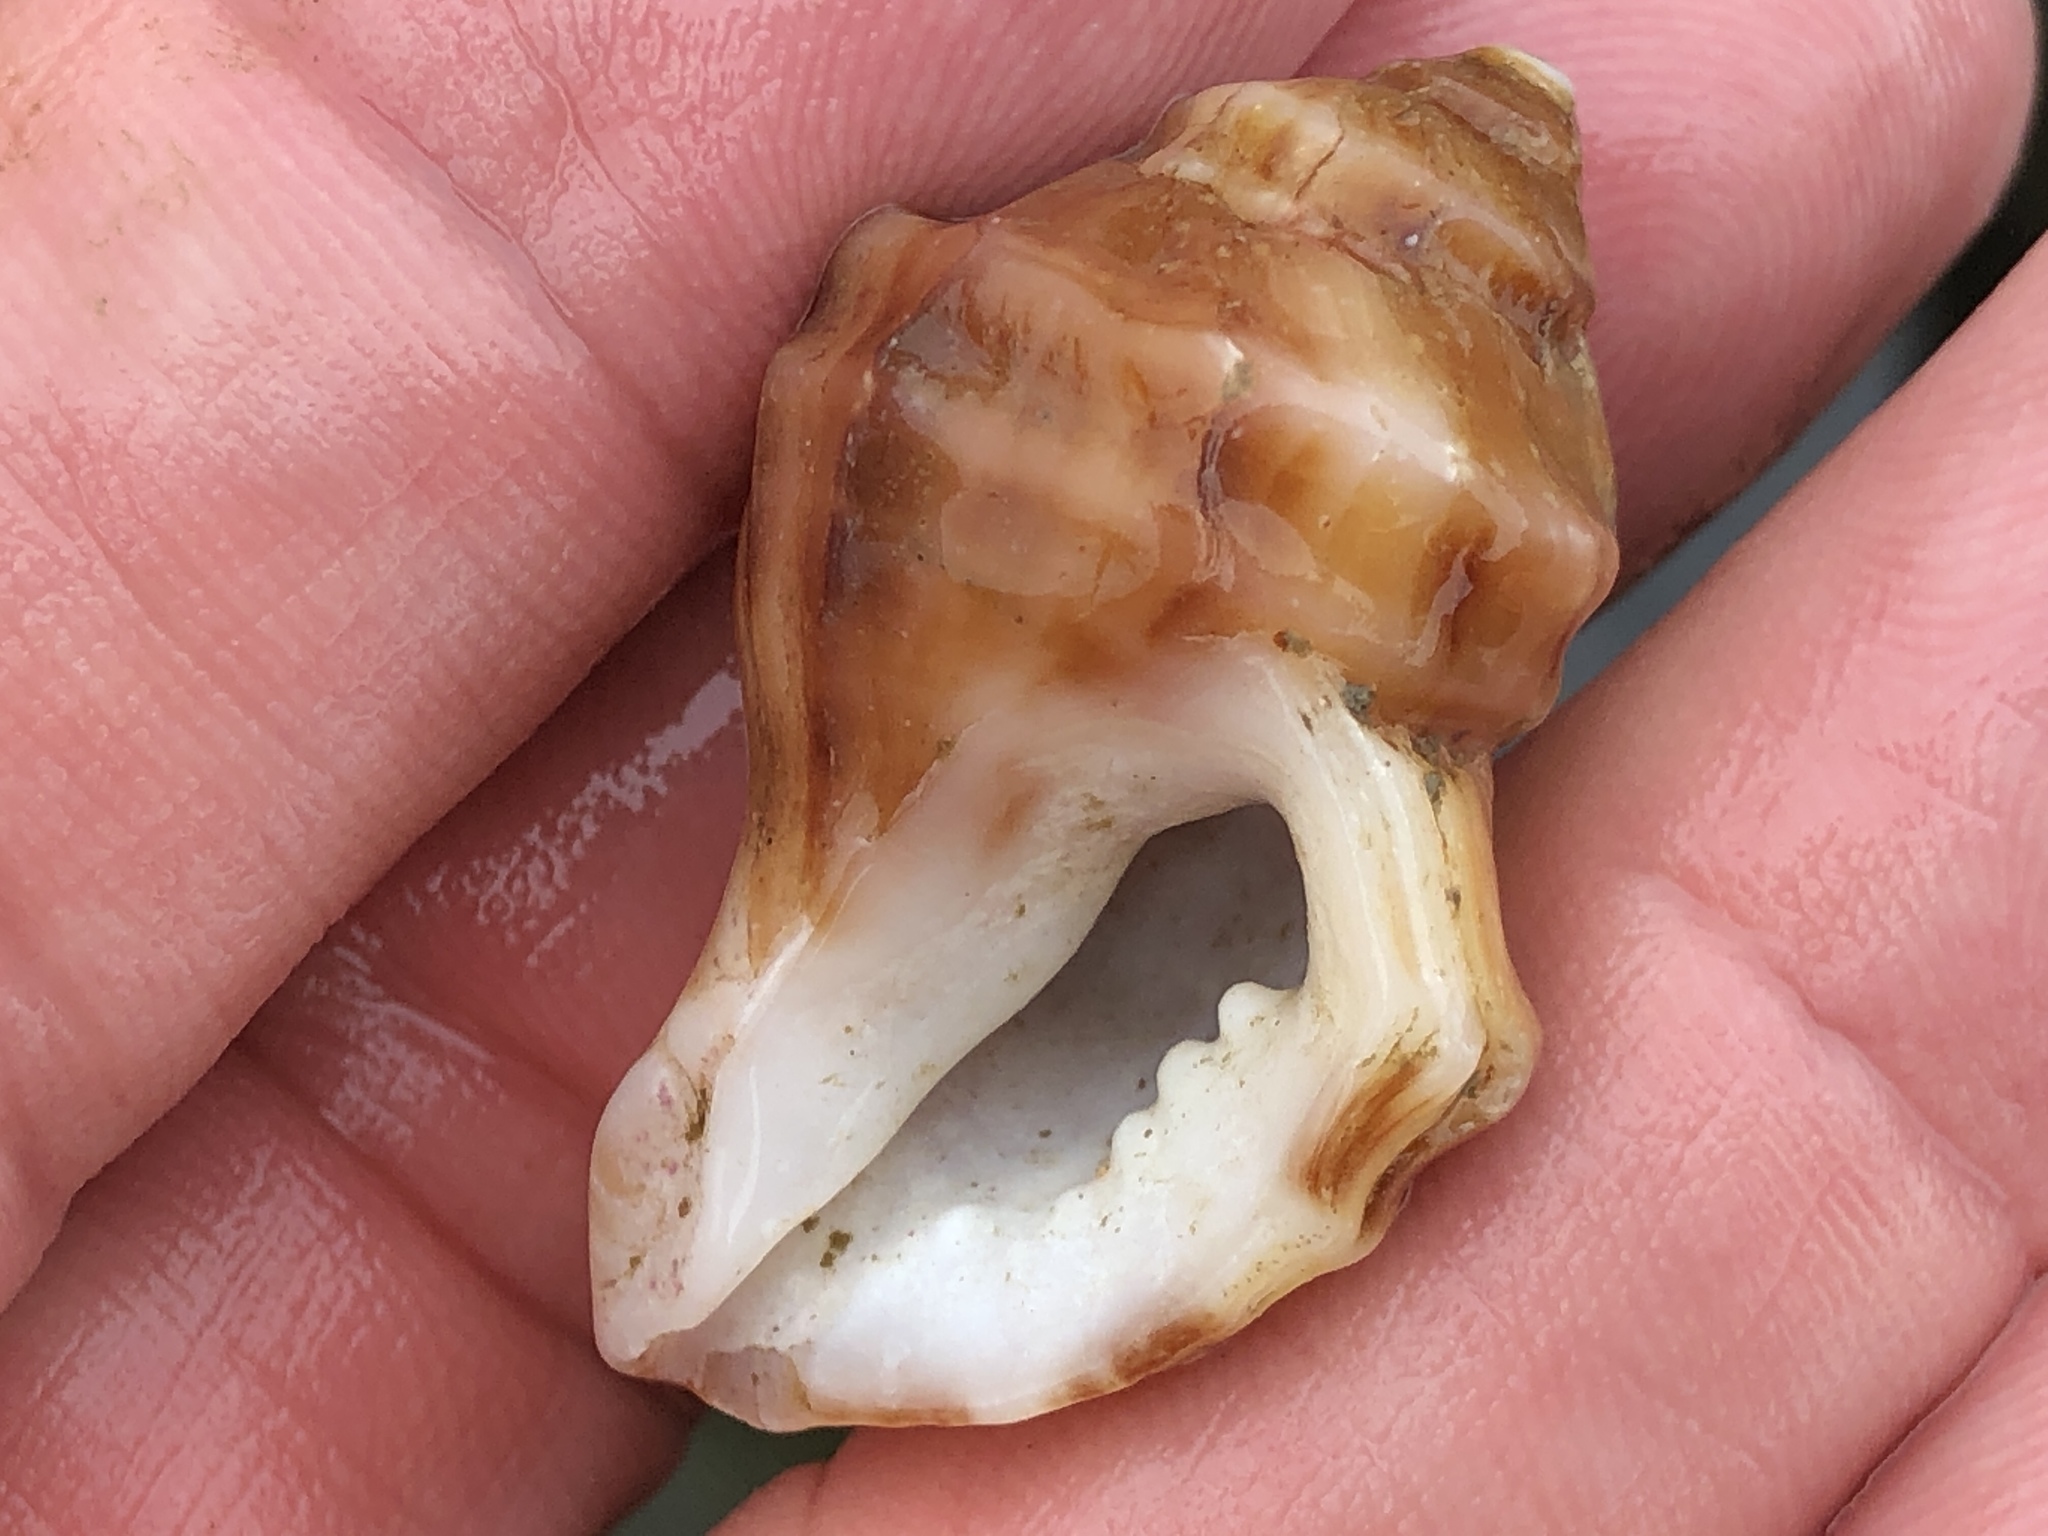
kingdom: Animalia
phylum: Mollusca
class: Gastropoda
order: Neogastropoda
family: Muricidae
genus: Nucella
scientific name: Nucella lamellosa
